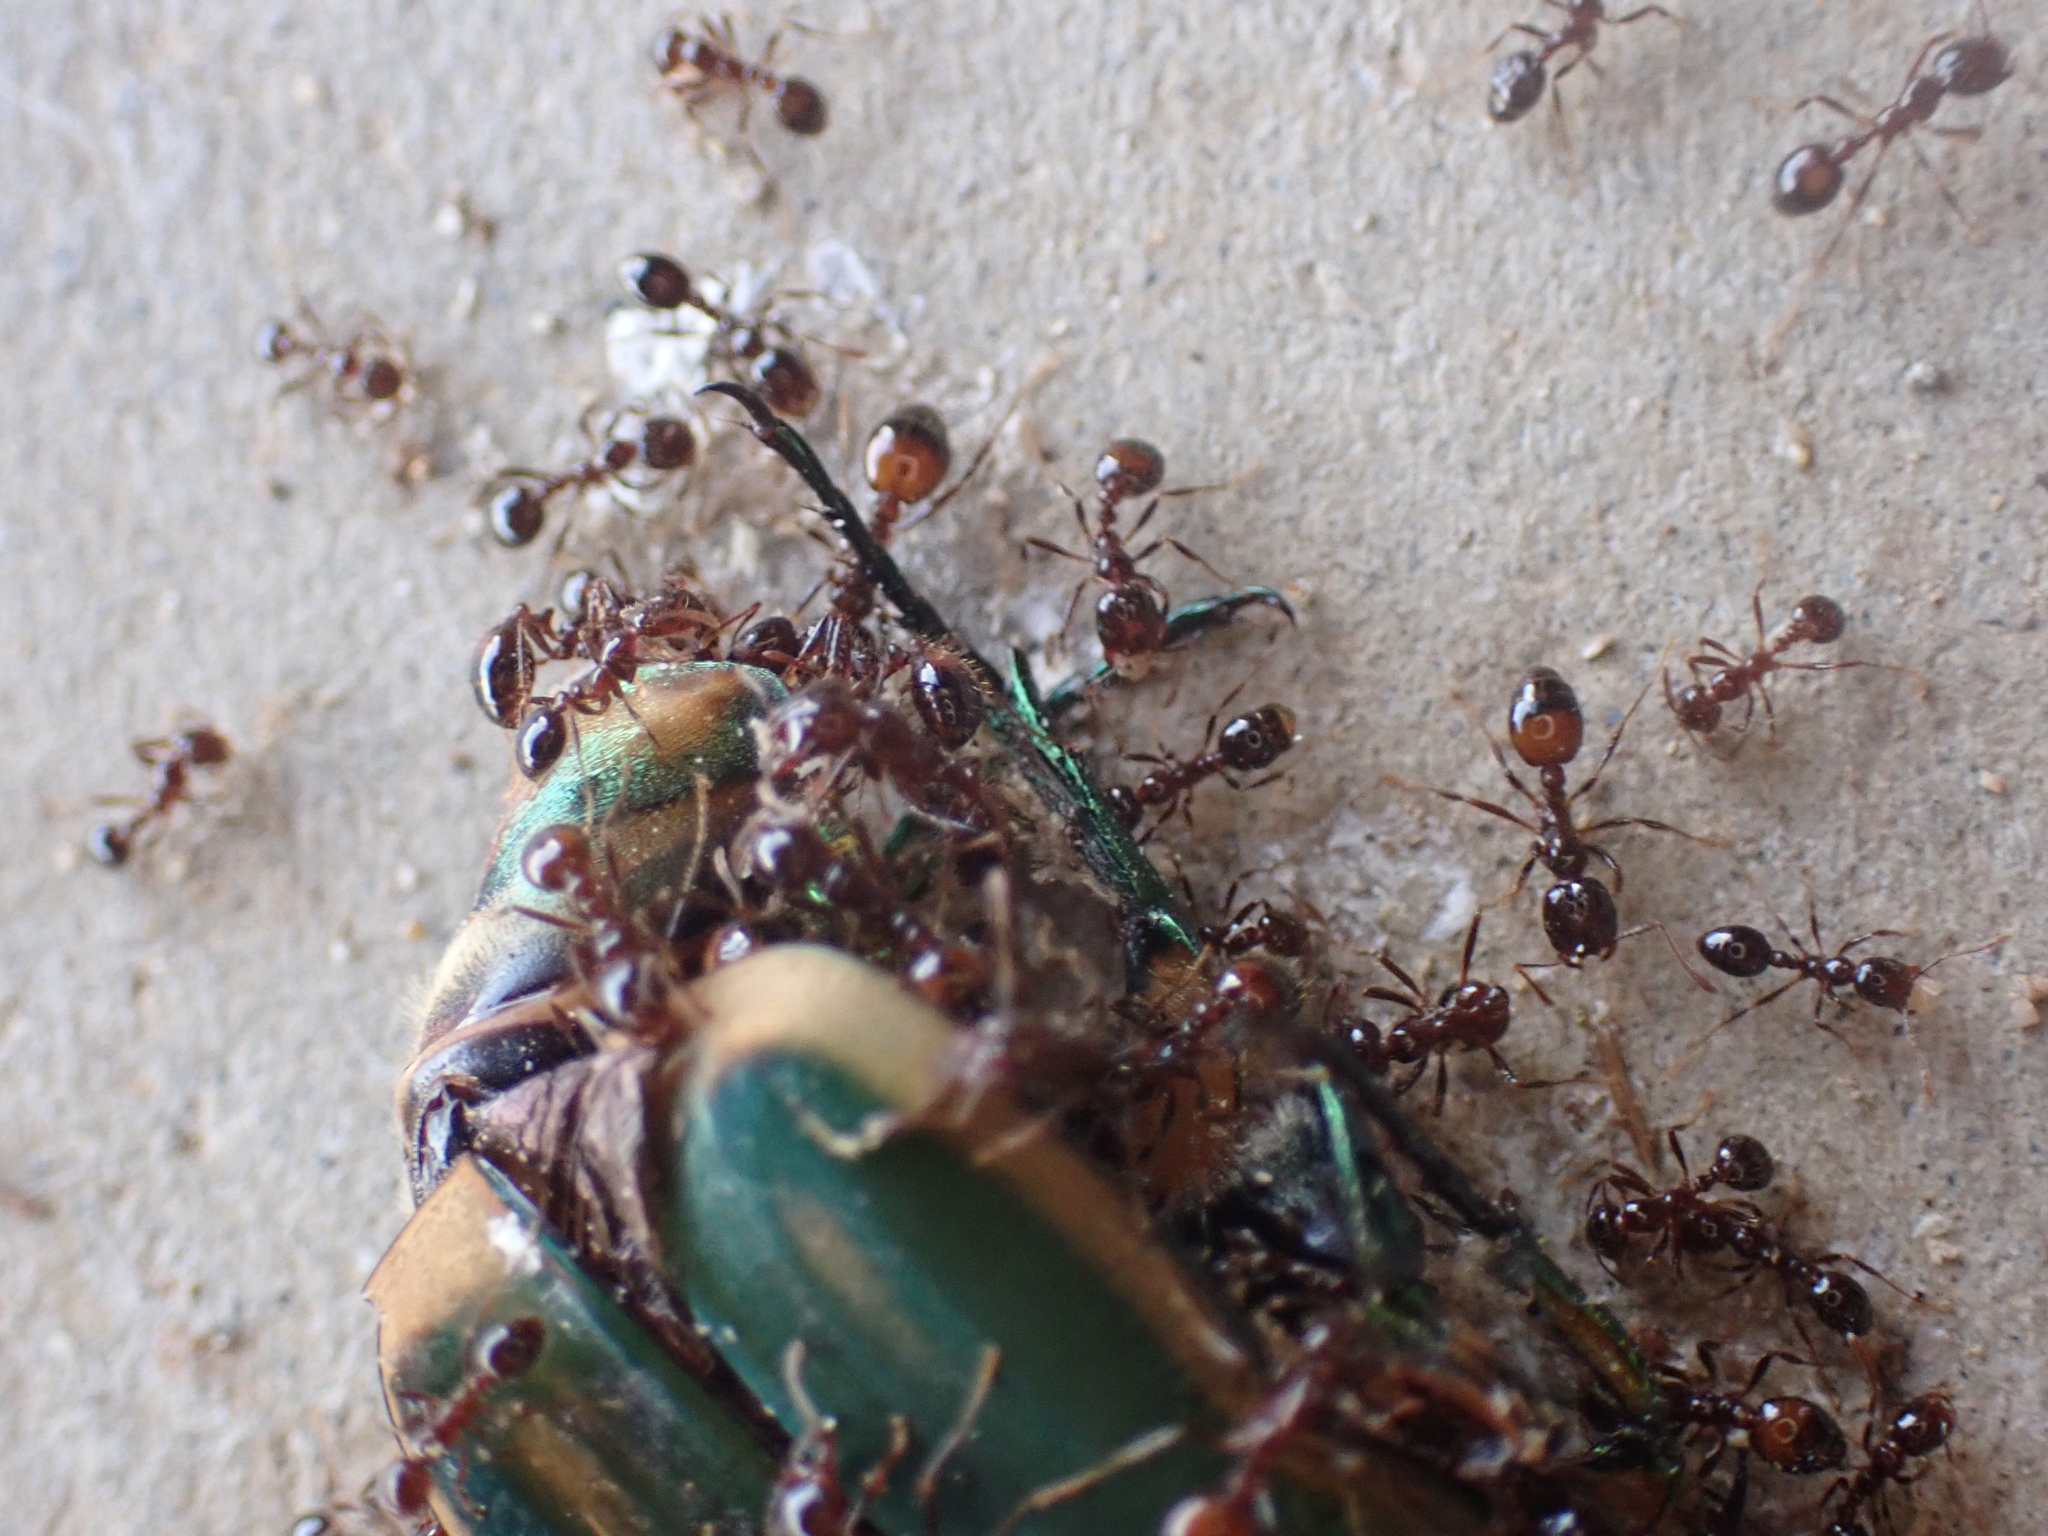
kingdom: Animalia
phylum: Arthropoda
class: Insecta
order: Hymenoptera
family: Formicidae
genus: Solenopsis
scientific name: Solenopsis
